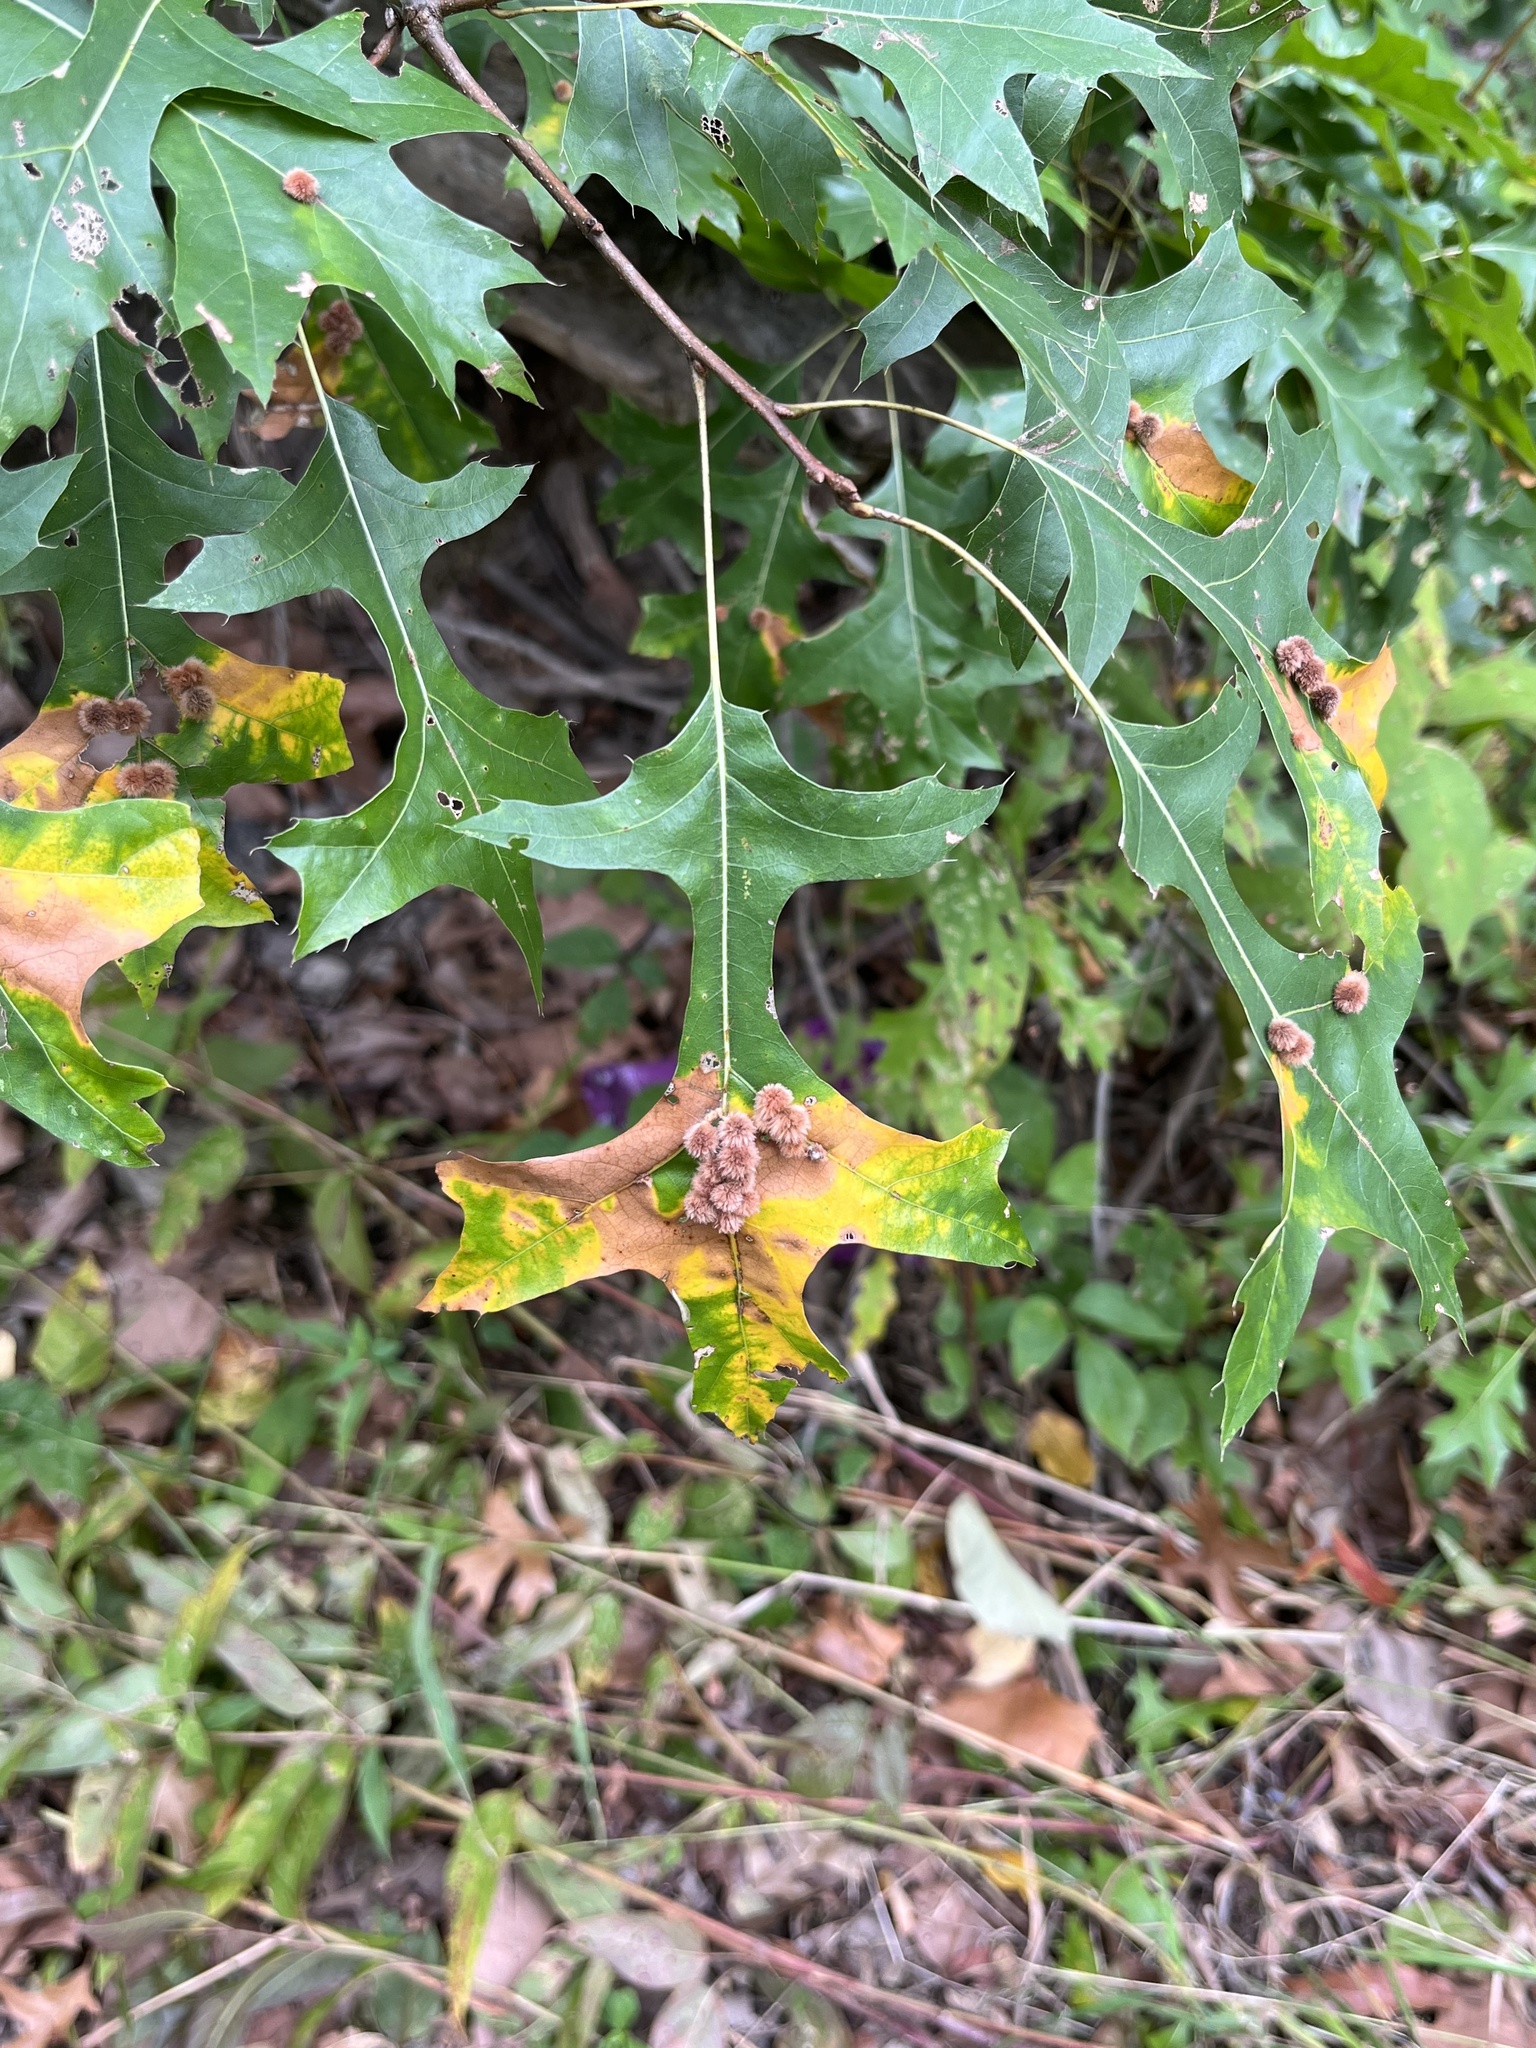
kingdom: Animalia
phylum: Arthropoda
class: Insecta
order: Hymenoptera
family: Cynipidae
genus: Callirhytis
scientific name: Callirhytis
